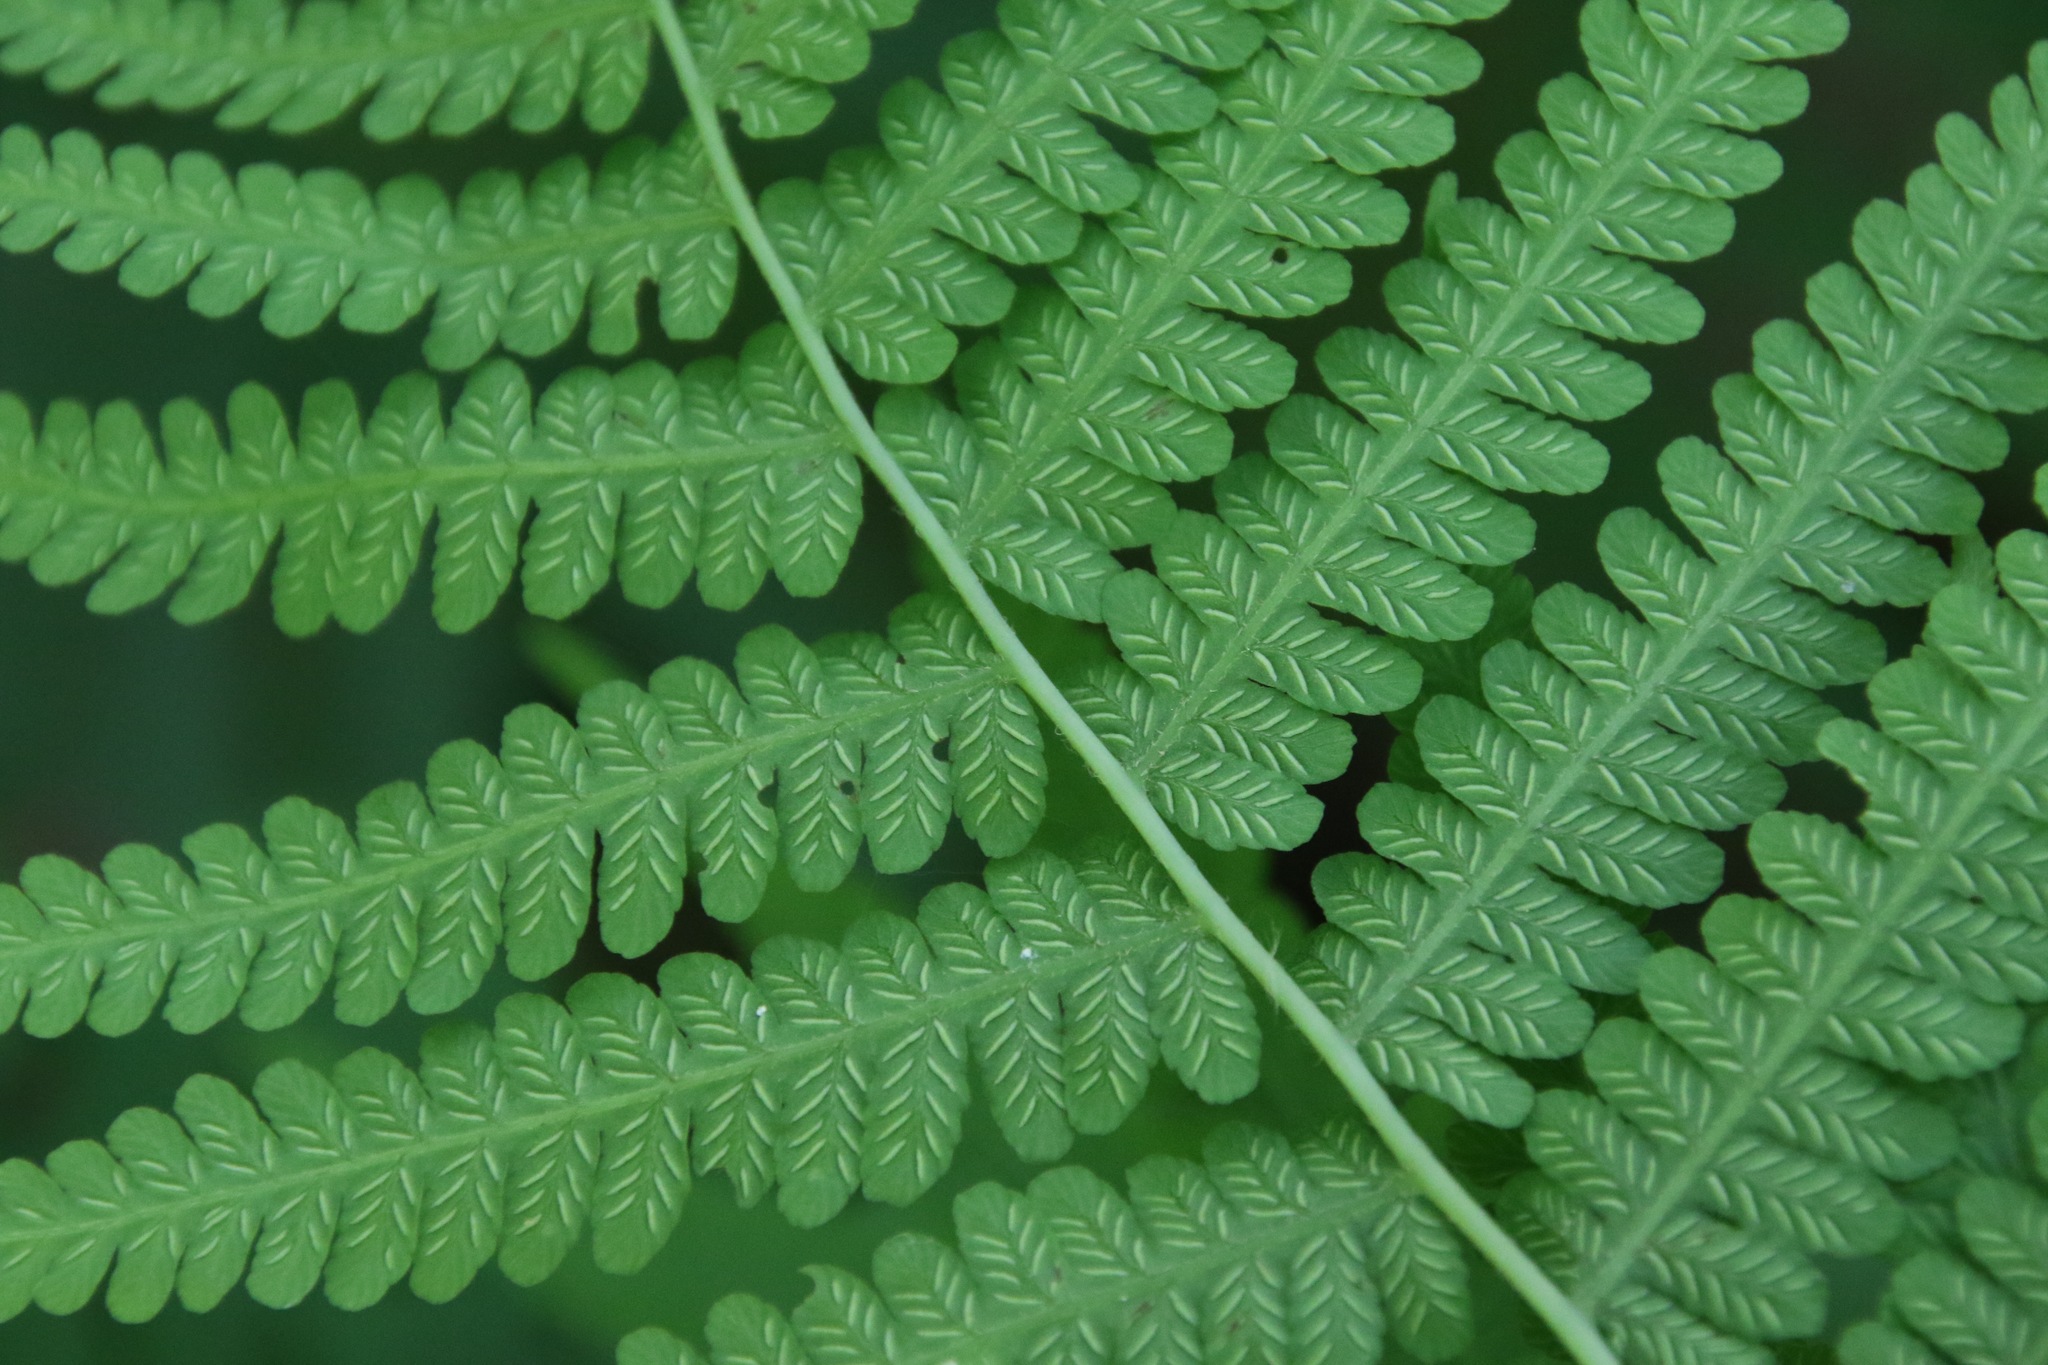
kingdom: Plantae
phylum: Tracheophyta
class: Polypodiopsida
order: Polypodiales
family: Athyriaceae
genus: Deparia
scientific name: Deparia acrostichoides
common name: Silver false spleenwort
